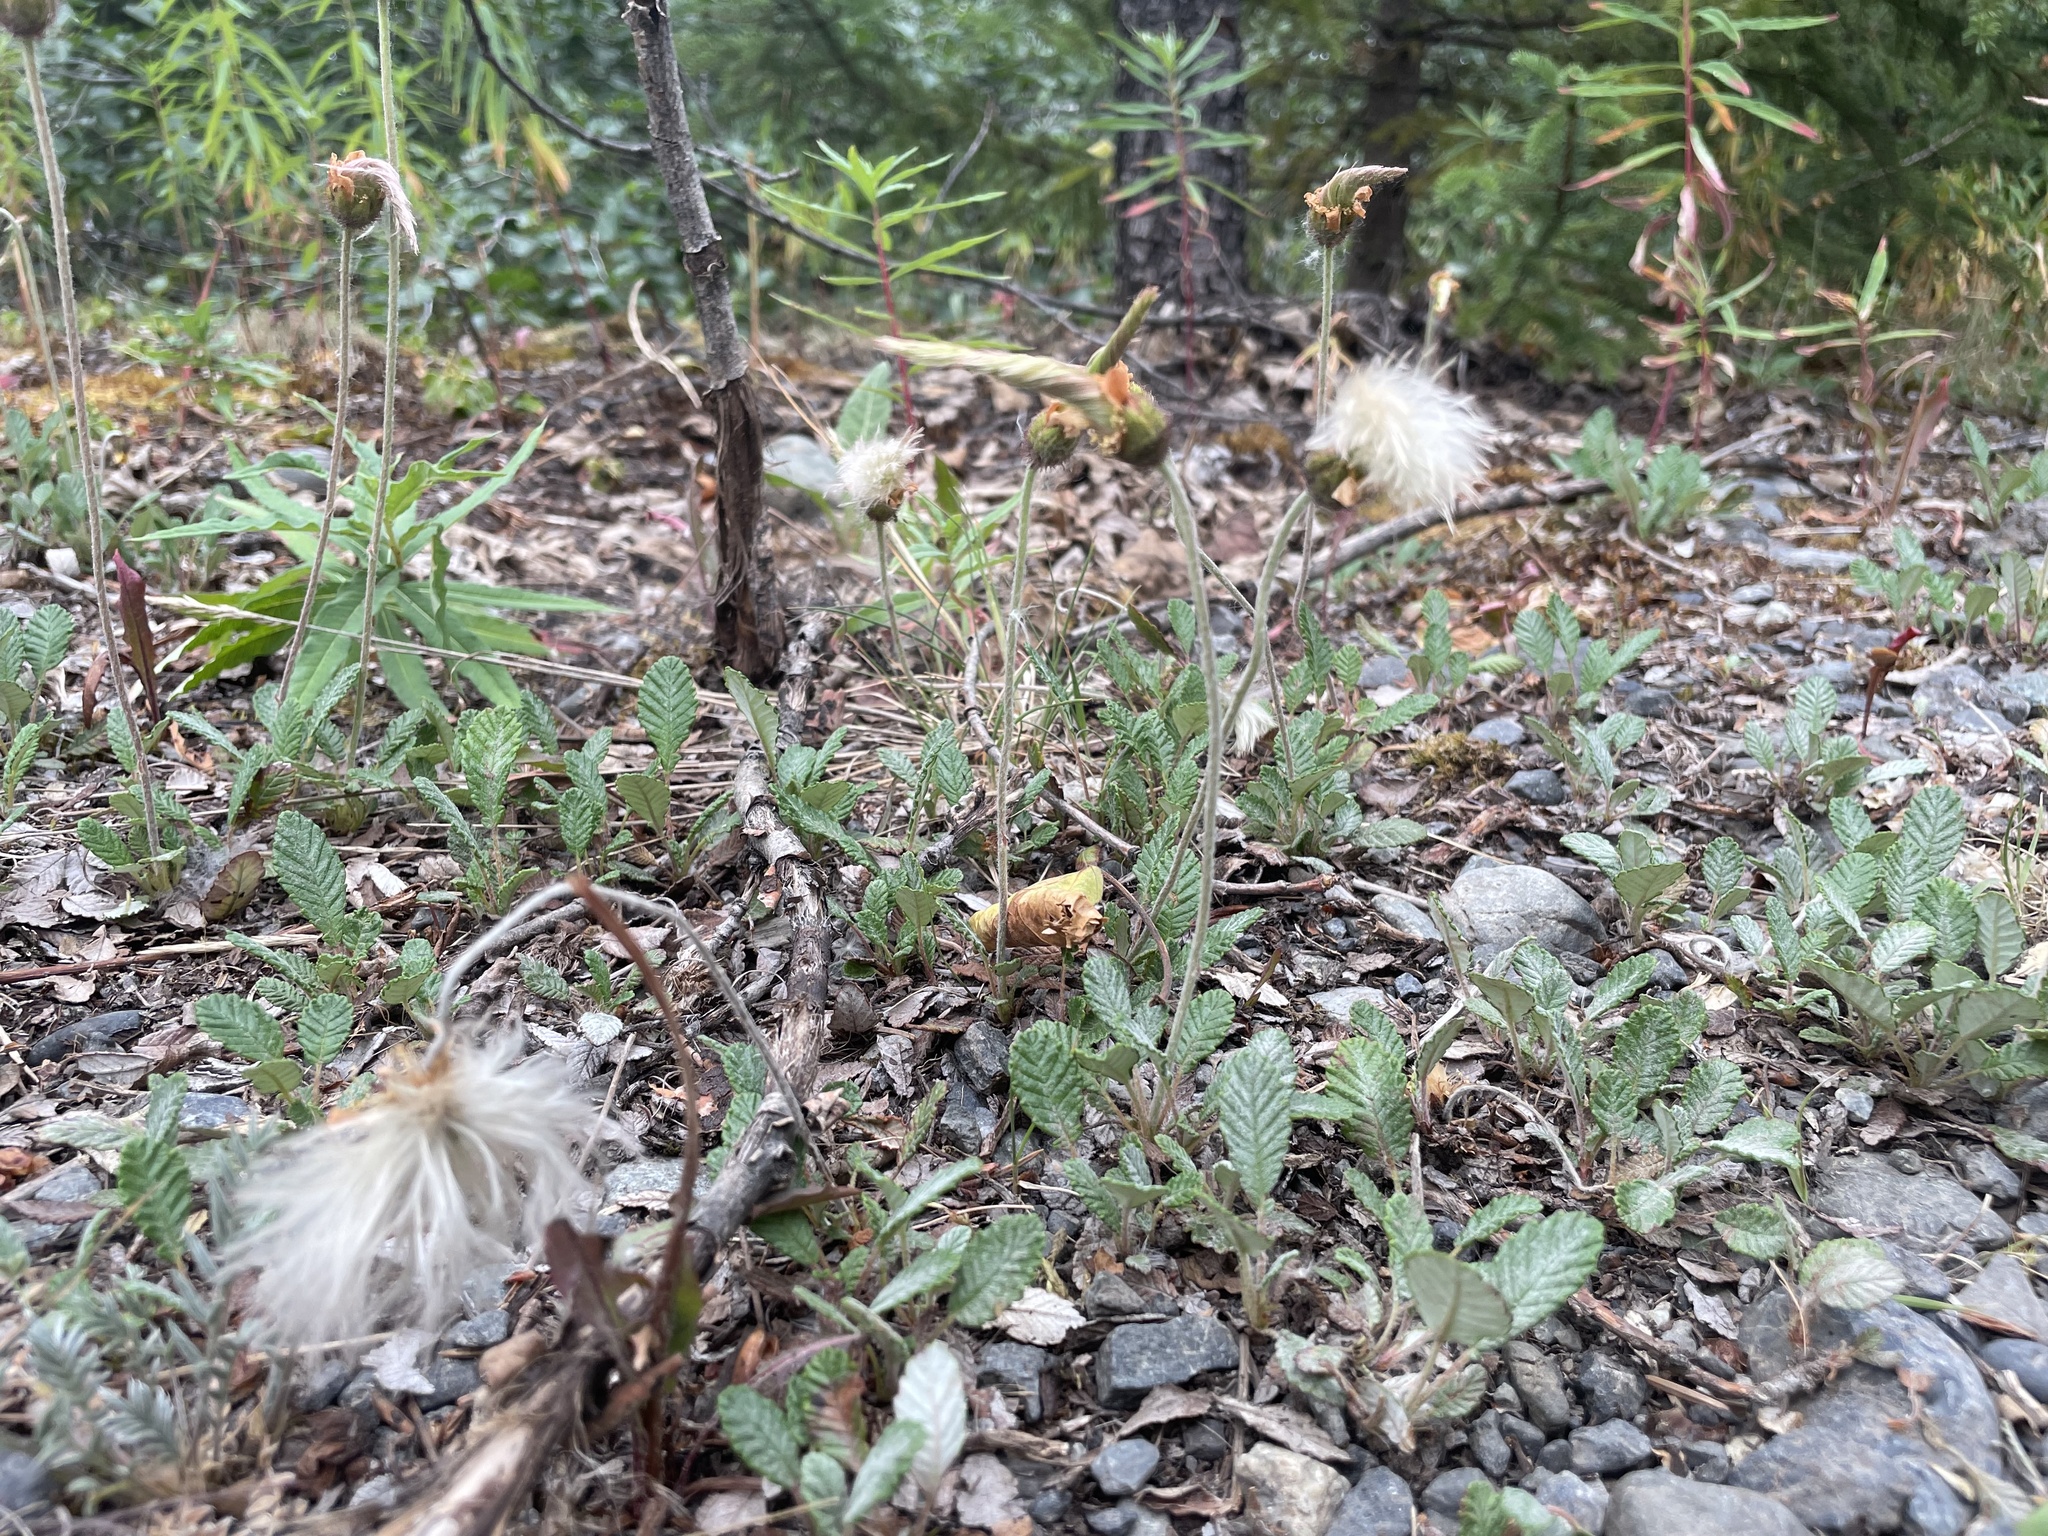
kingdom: Plantae
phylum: Tracheophyta
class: Magnoliopsida
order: Lamiales
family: Orobanchaceae
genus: Boschniakia
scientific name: Boschniakia rossica
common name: Poque
